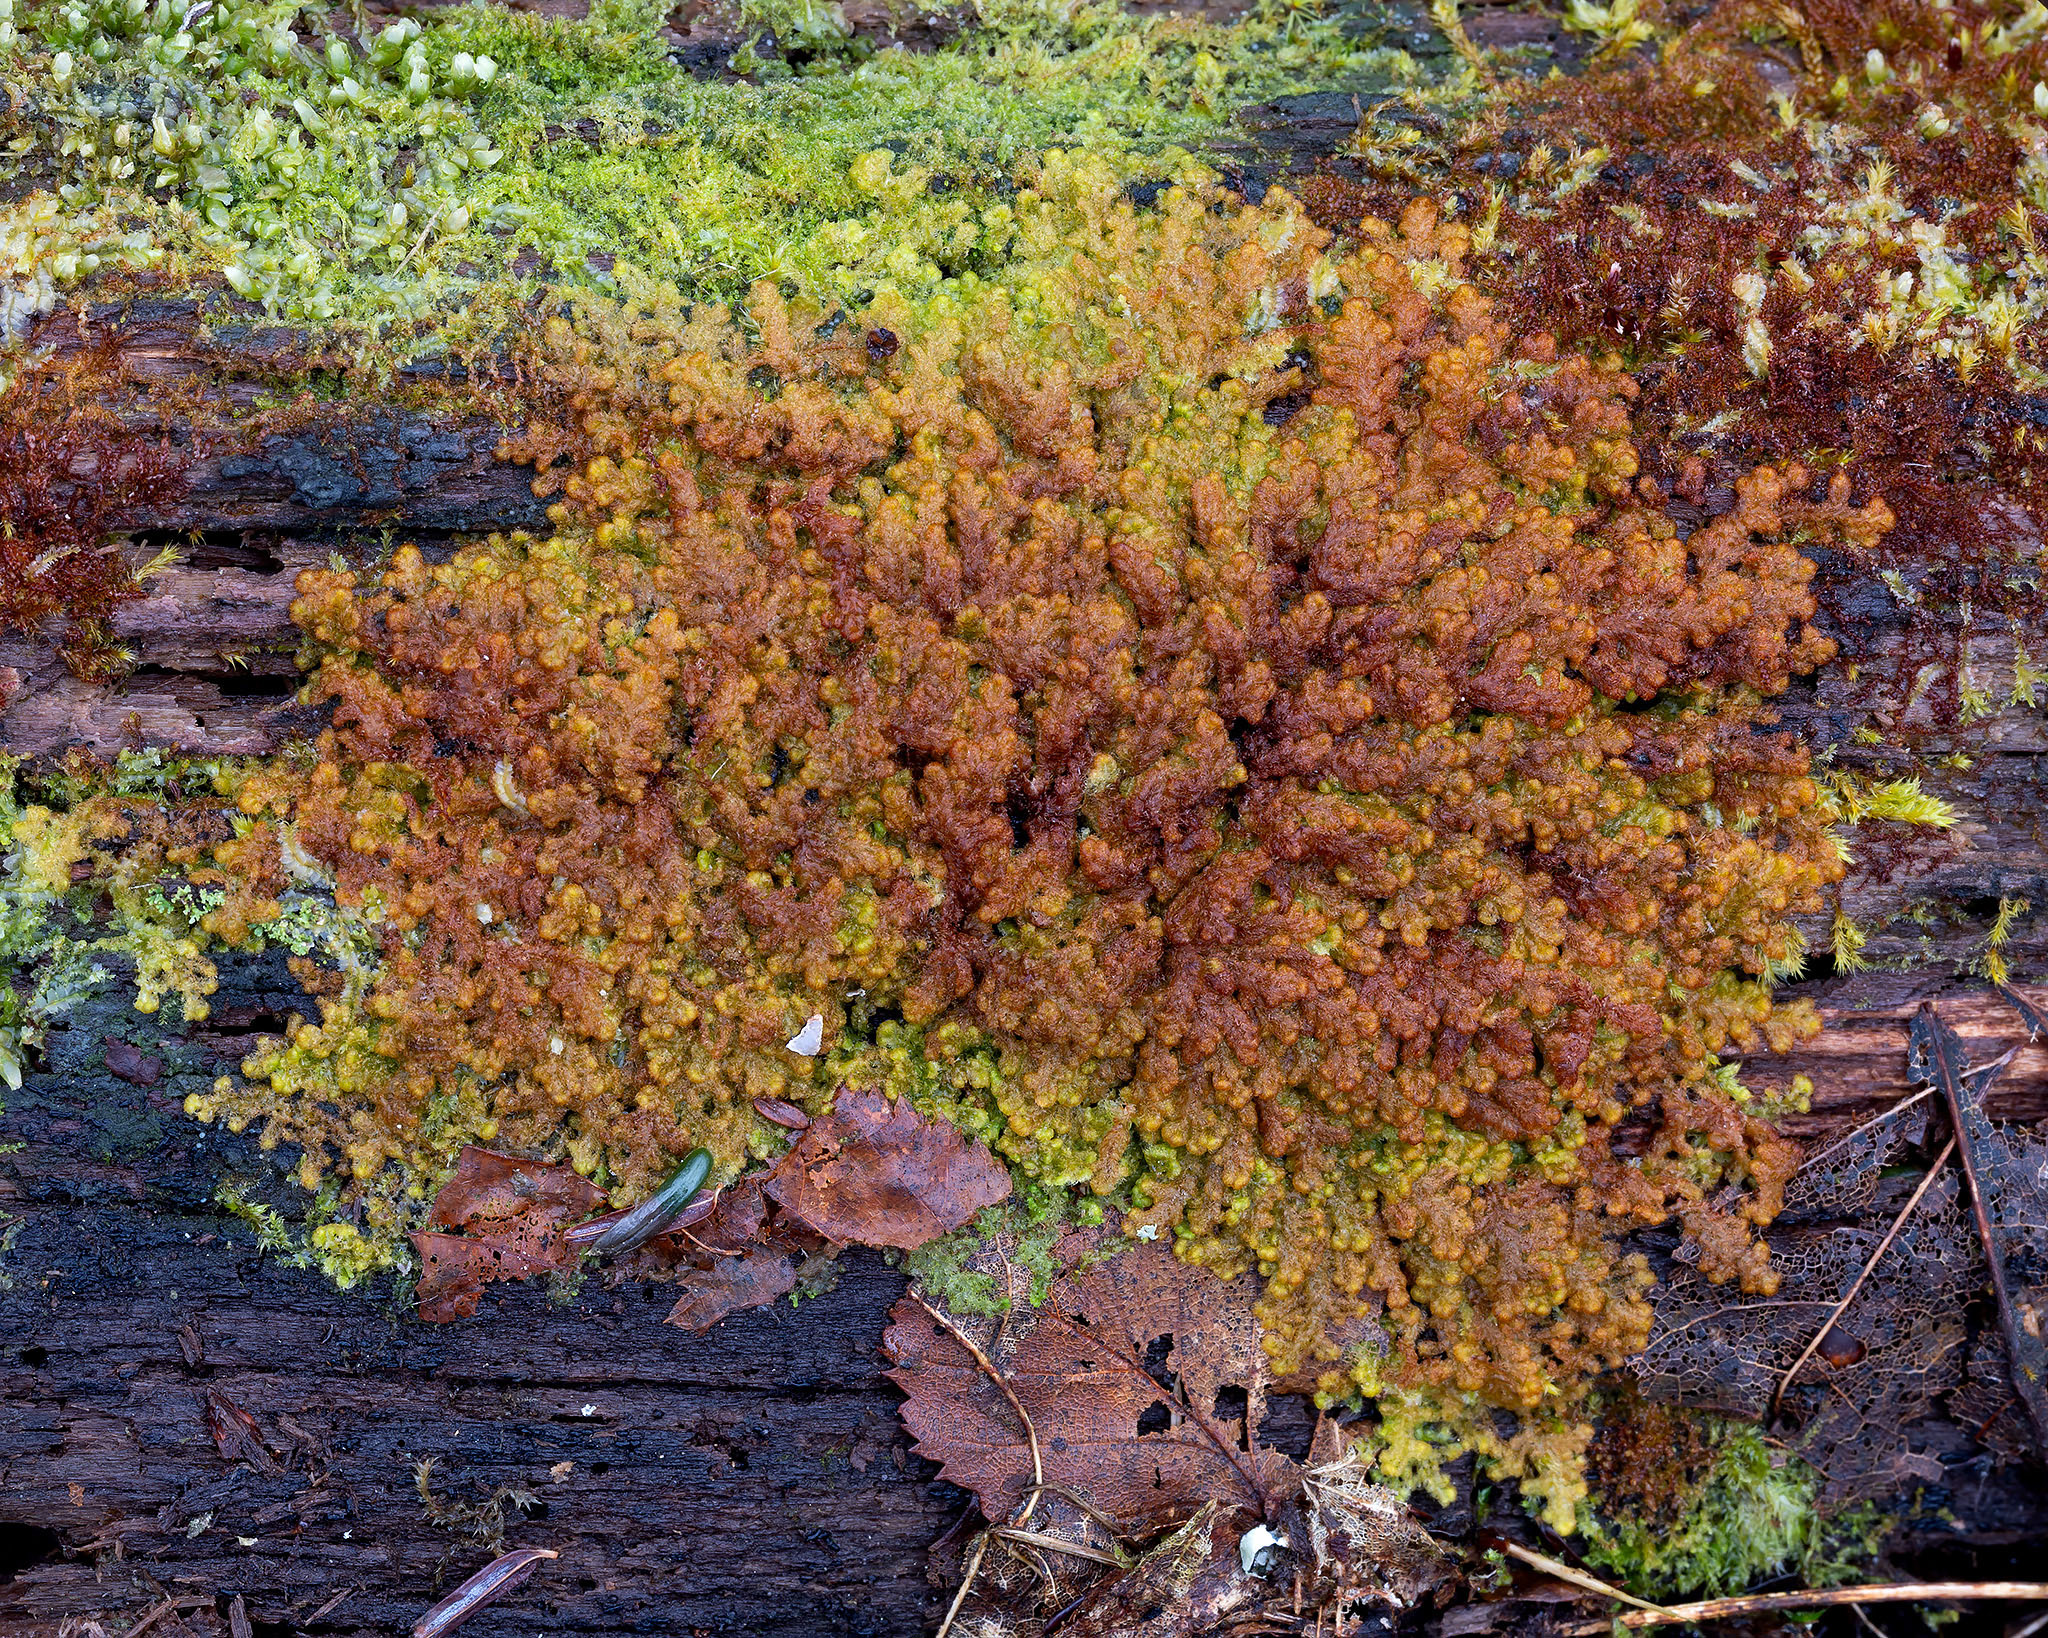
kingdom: Plantae
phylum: Marchantiophyta
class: Jungermanniopsida
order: Ptilidiales
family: Ptilidiaceae
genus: Ptilidium
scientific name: Ptilidium pulcherrimum
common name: Tree fringewort
